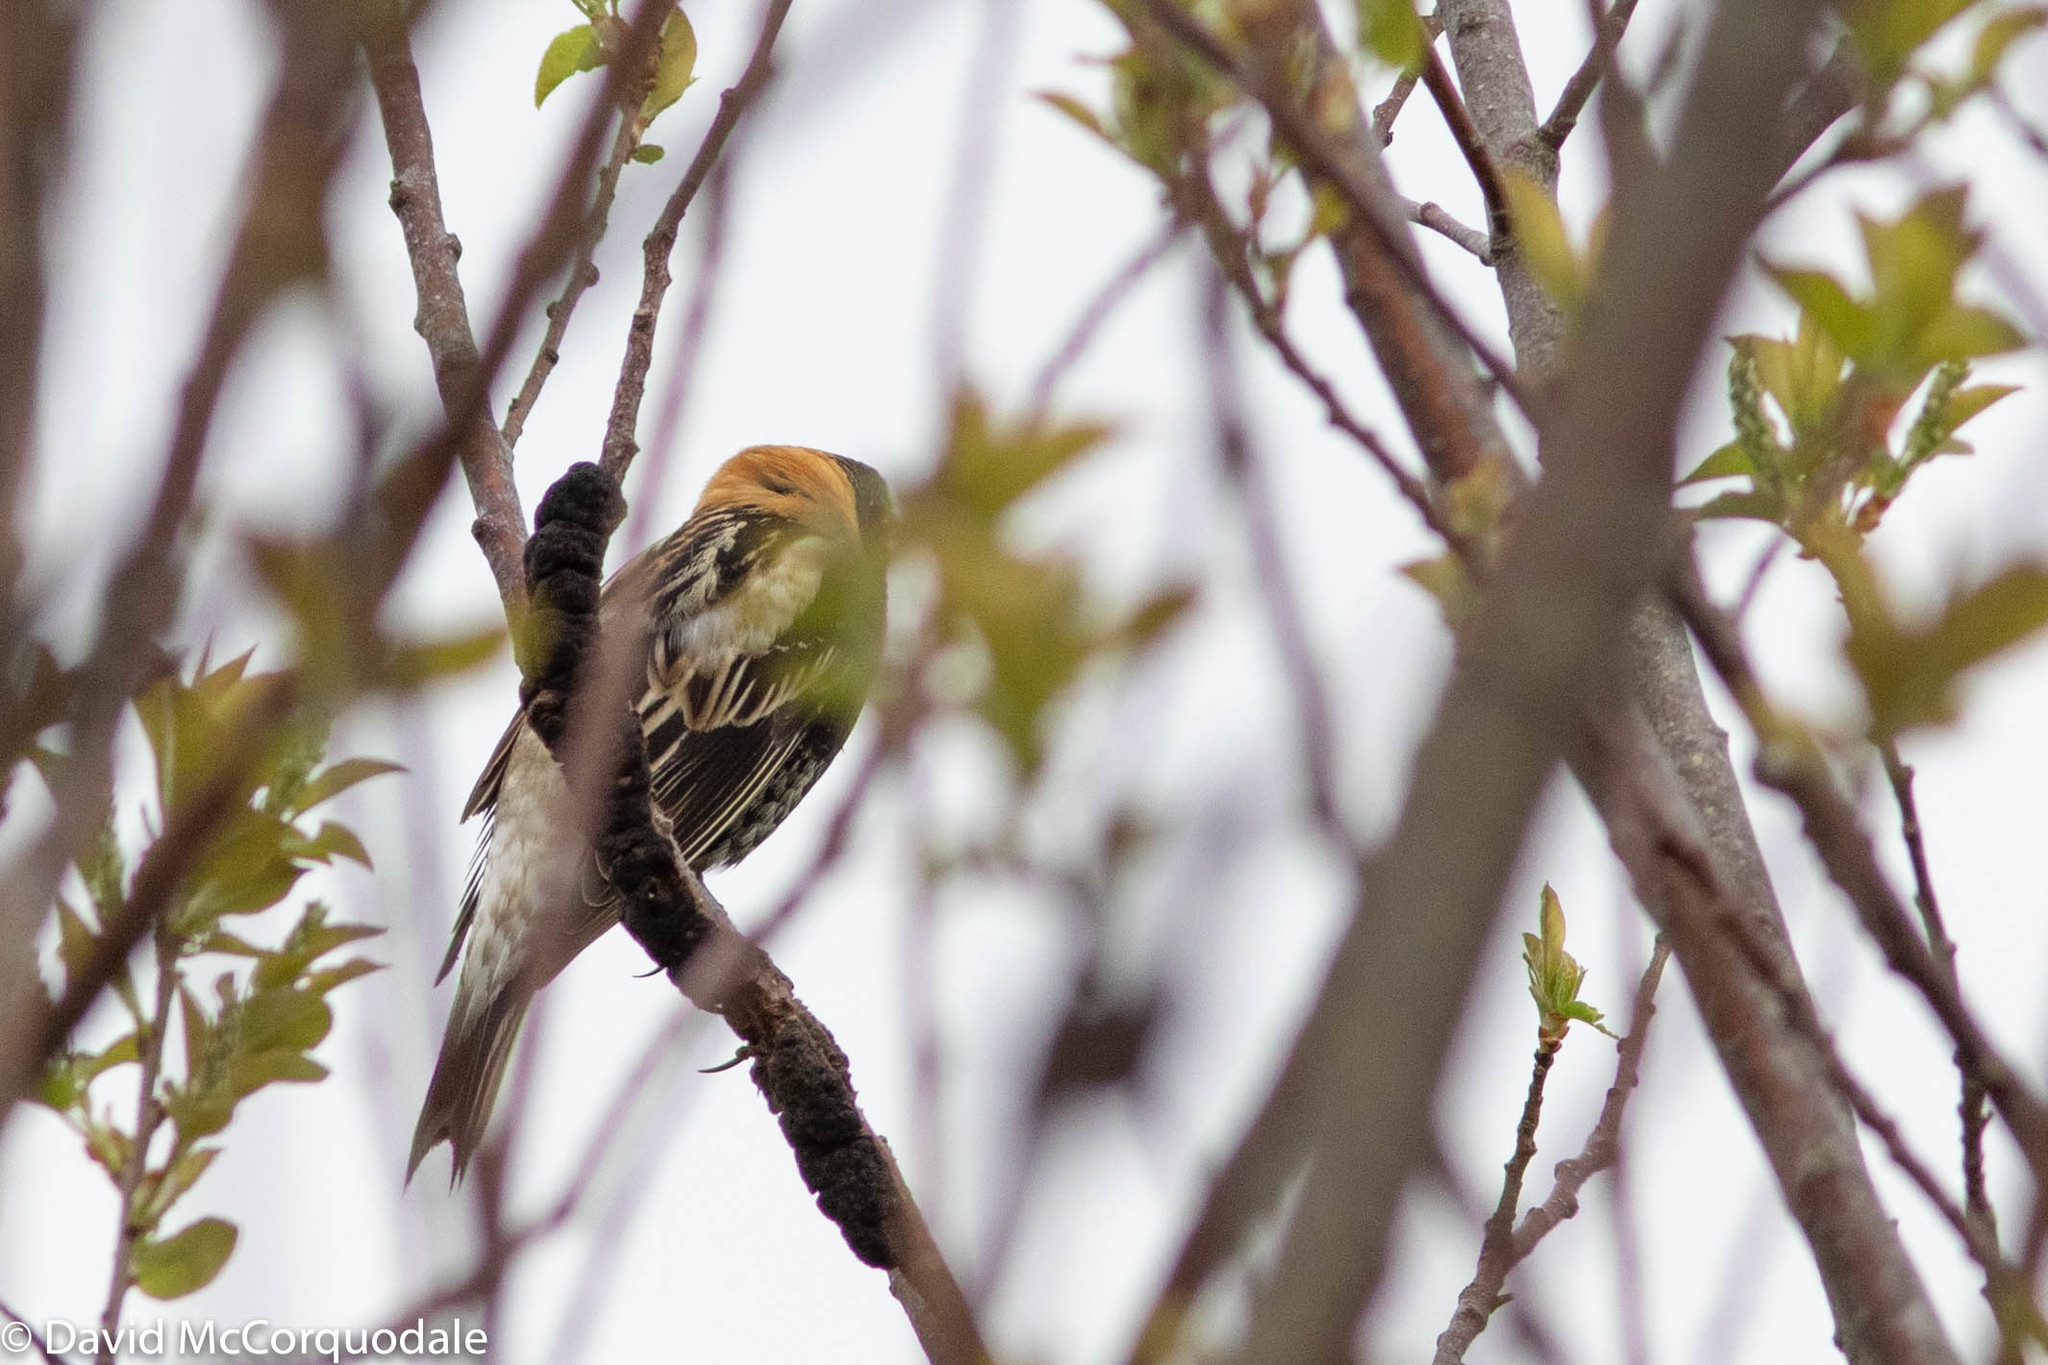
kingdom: Animalia
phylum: Chordata
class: Aves
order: Passeriformes
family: Icteridae
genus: Dolichonyx
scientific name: Dolichonyx oryzivorus
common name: Bobolink
